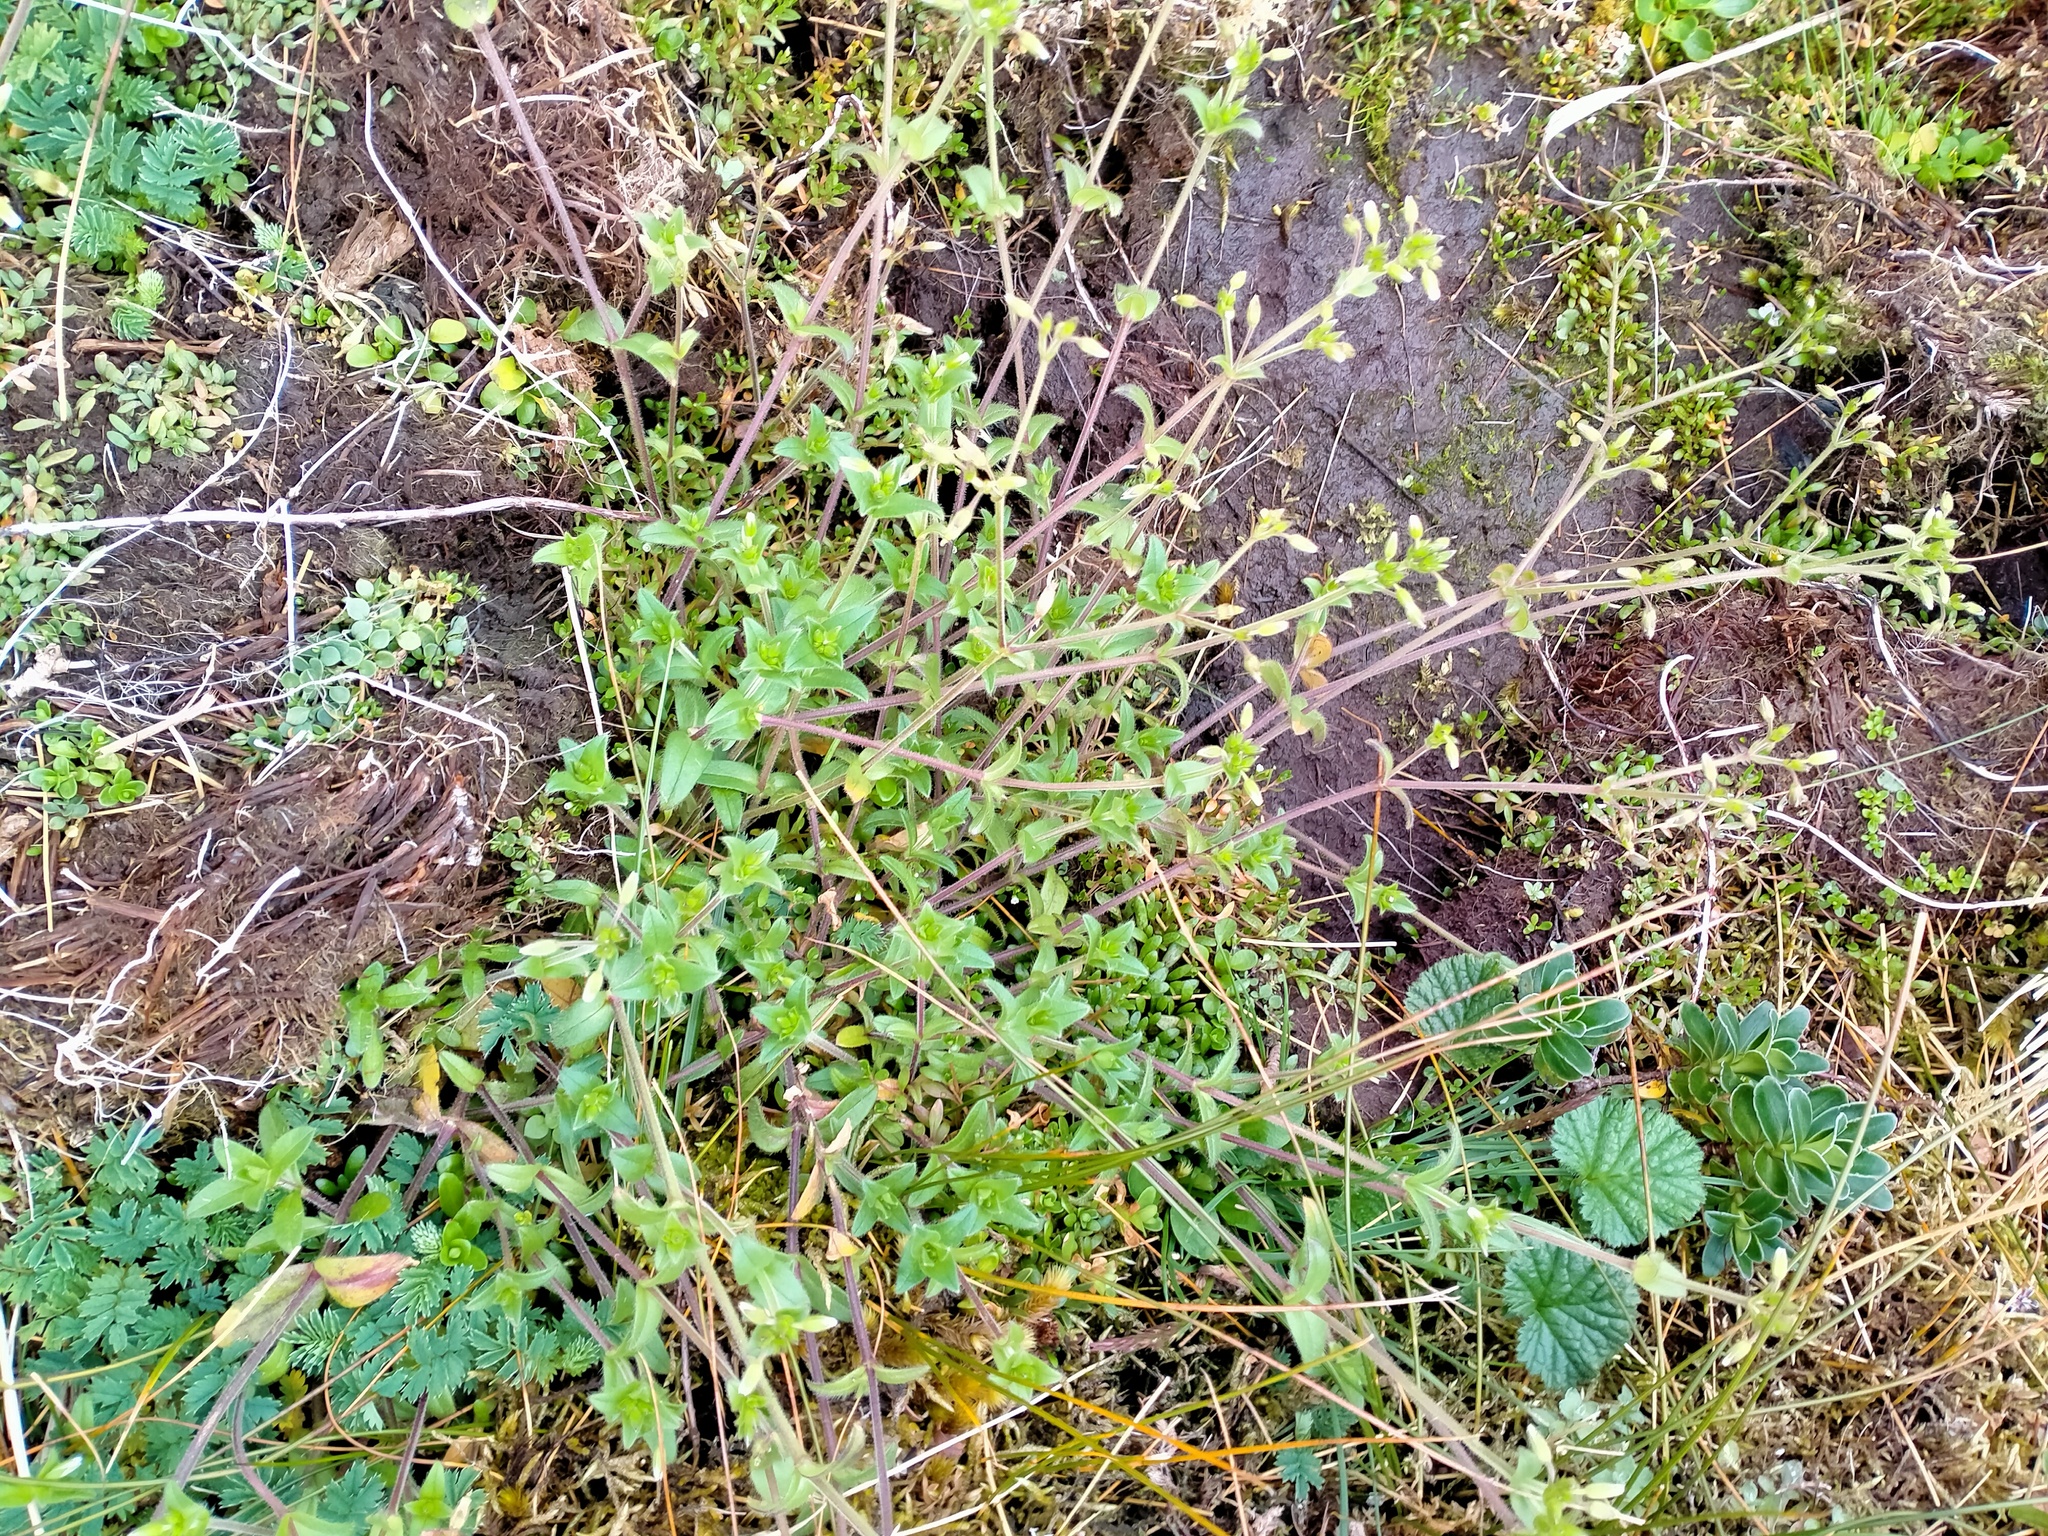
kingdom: Plantae
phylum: Tracheophyta
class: Magnoliopsida
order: Caryophyllales
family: Caryophyllaceae
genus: Cerastium
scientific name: Cerastium fontanum
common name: Common mouse-ear
